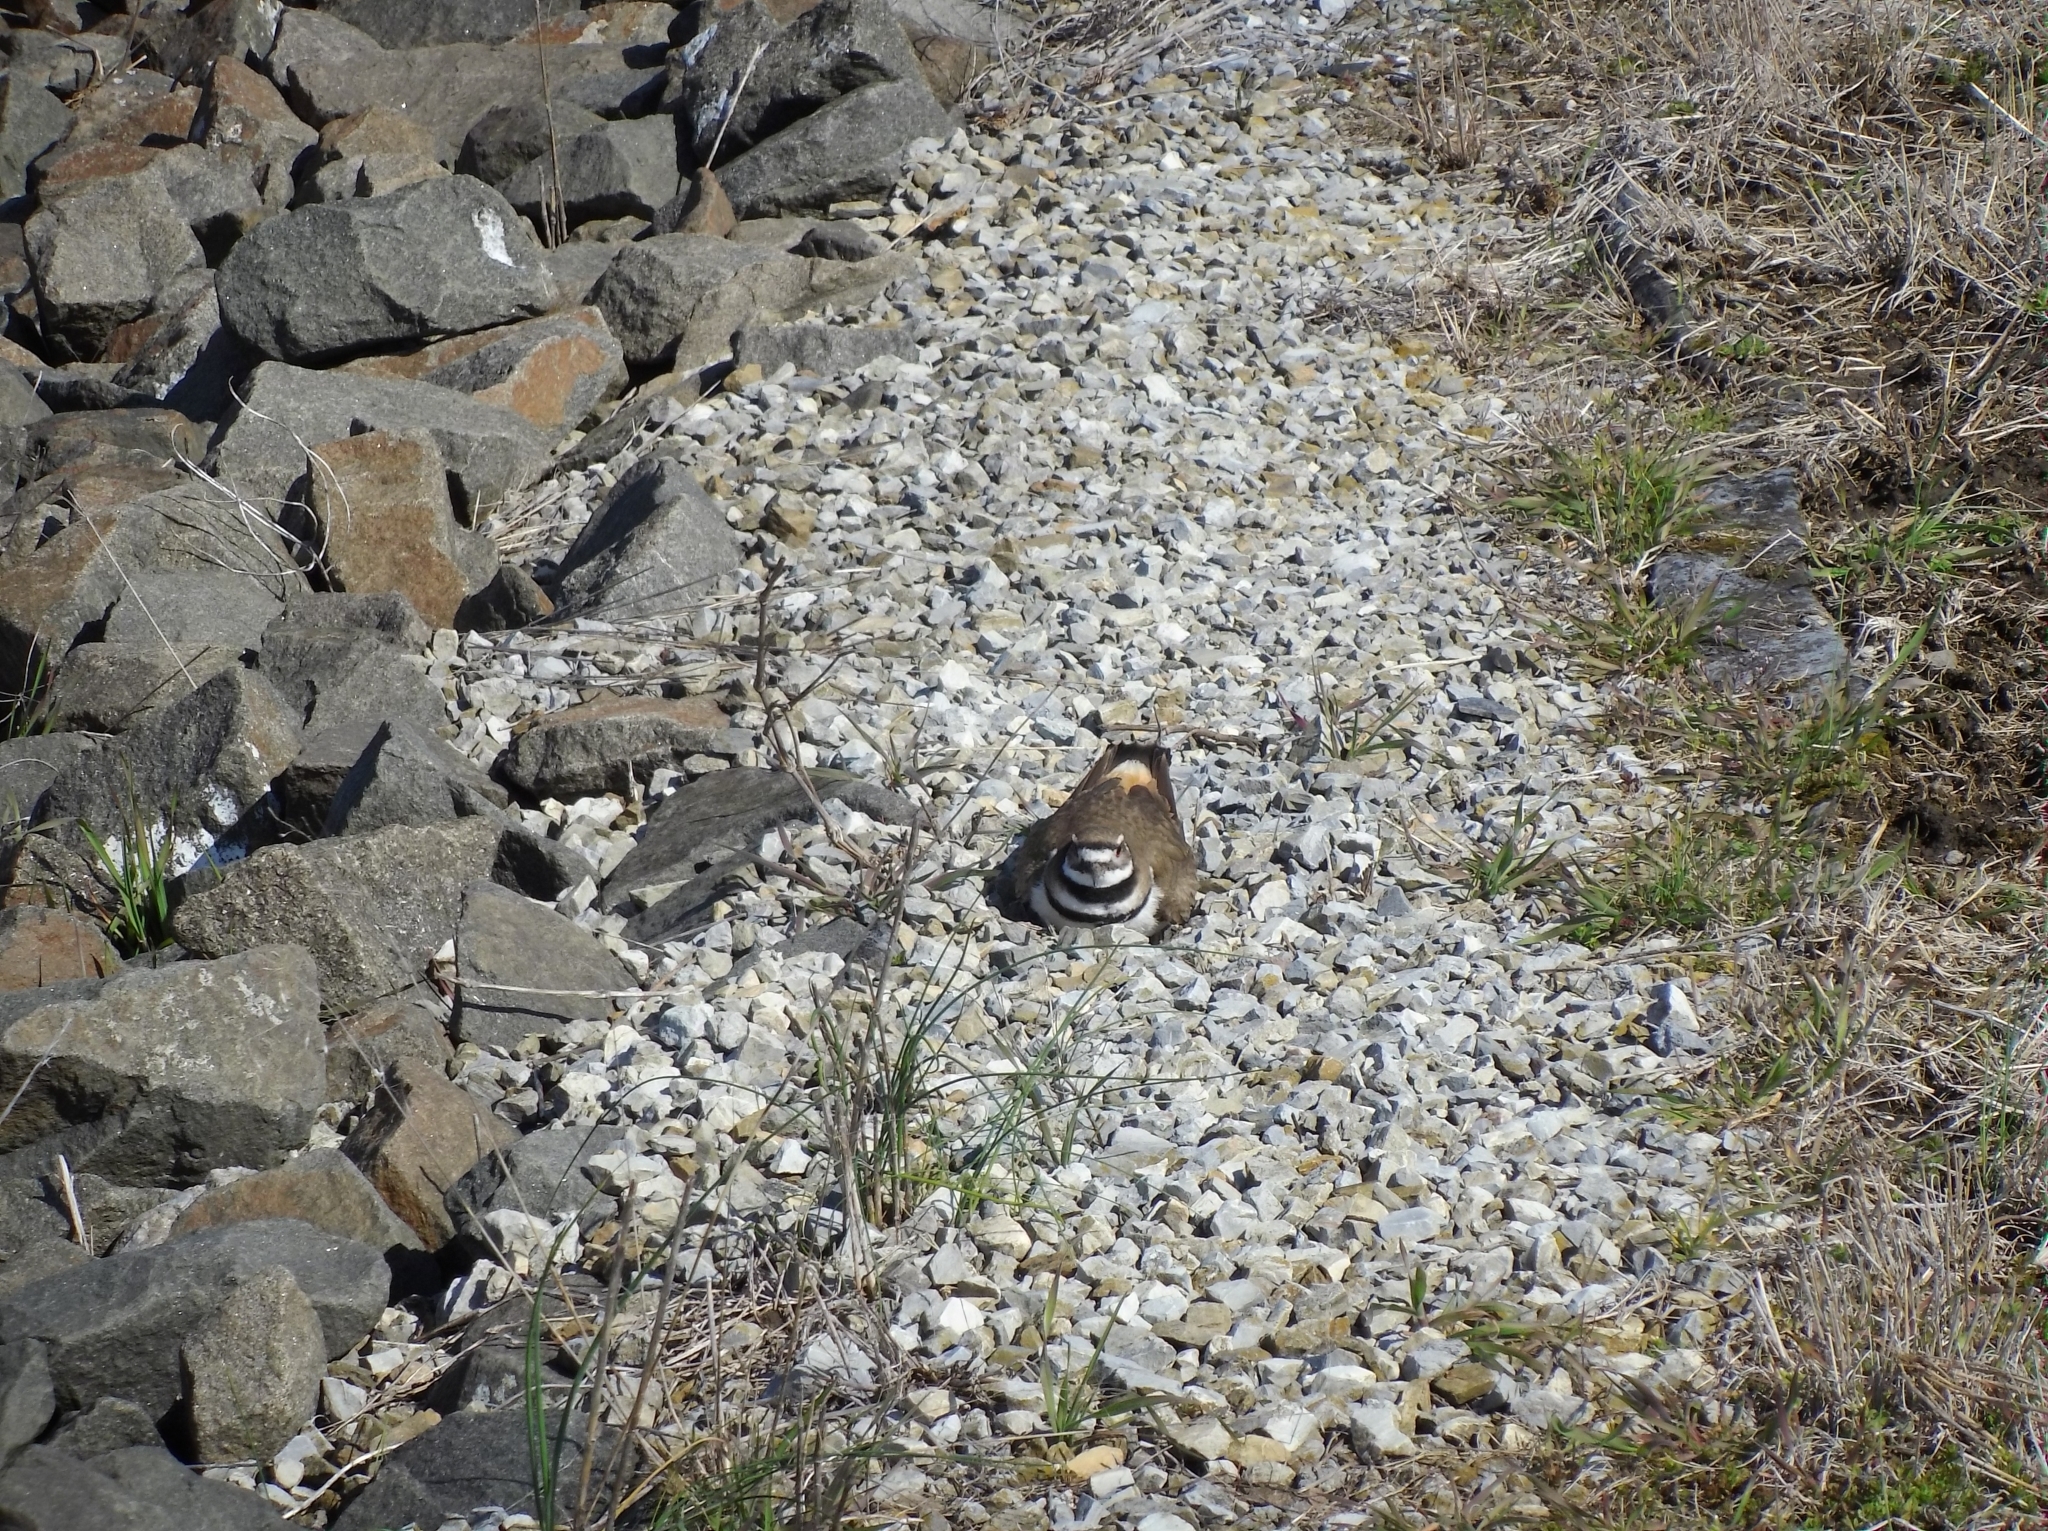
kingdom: Animalia
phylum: Chordata
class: Aves
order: Charadriiformes
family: Charadriidae
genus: Charadrius
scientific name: Charadrius vociferus
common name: Killdeer
